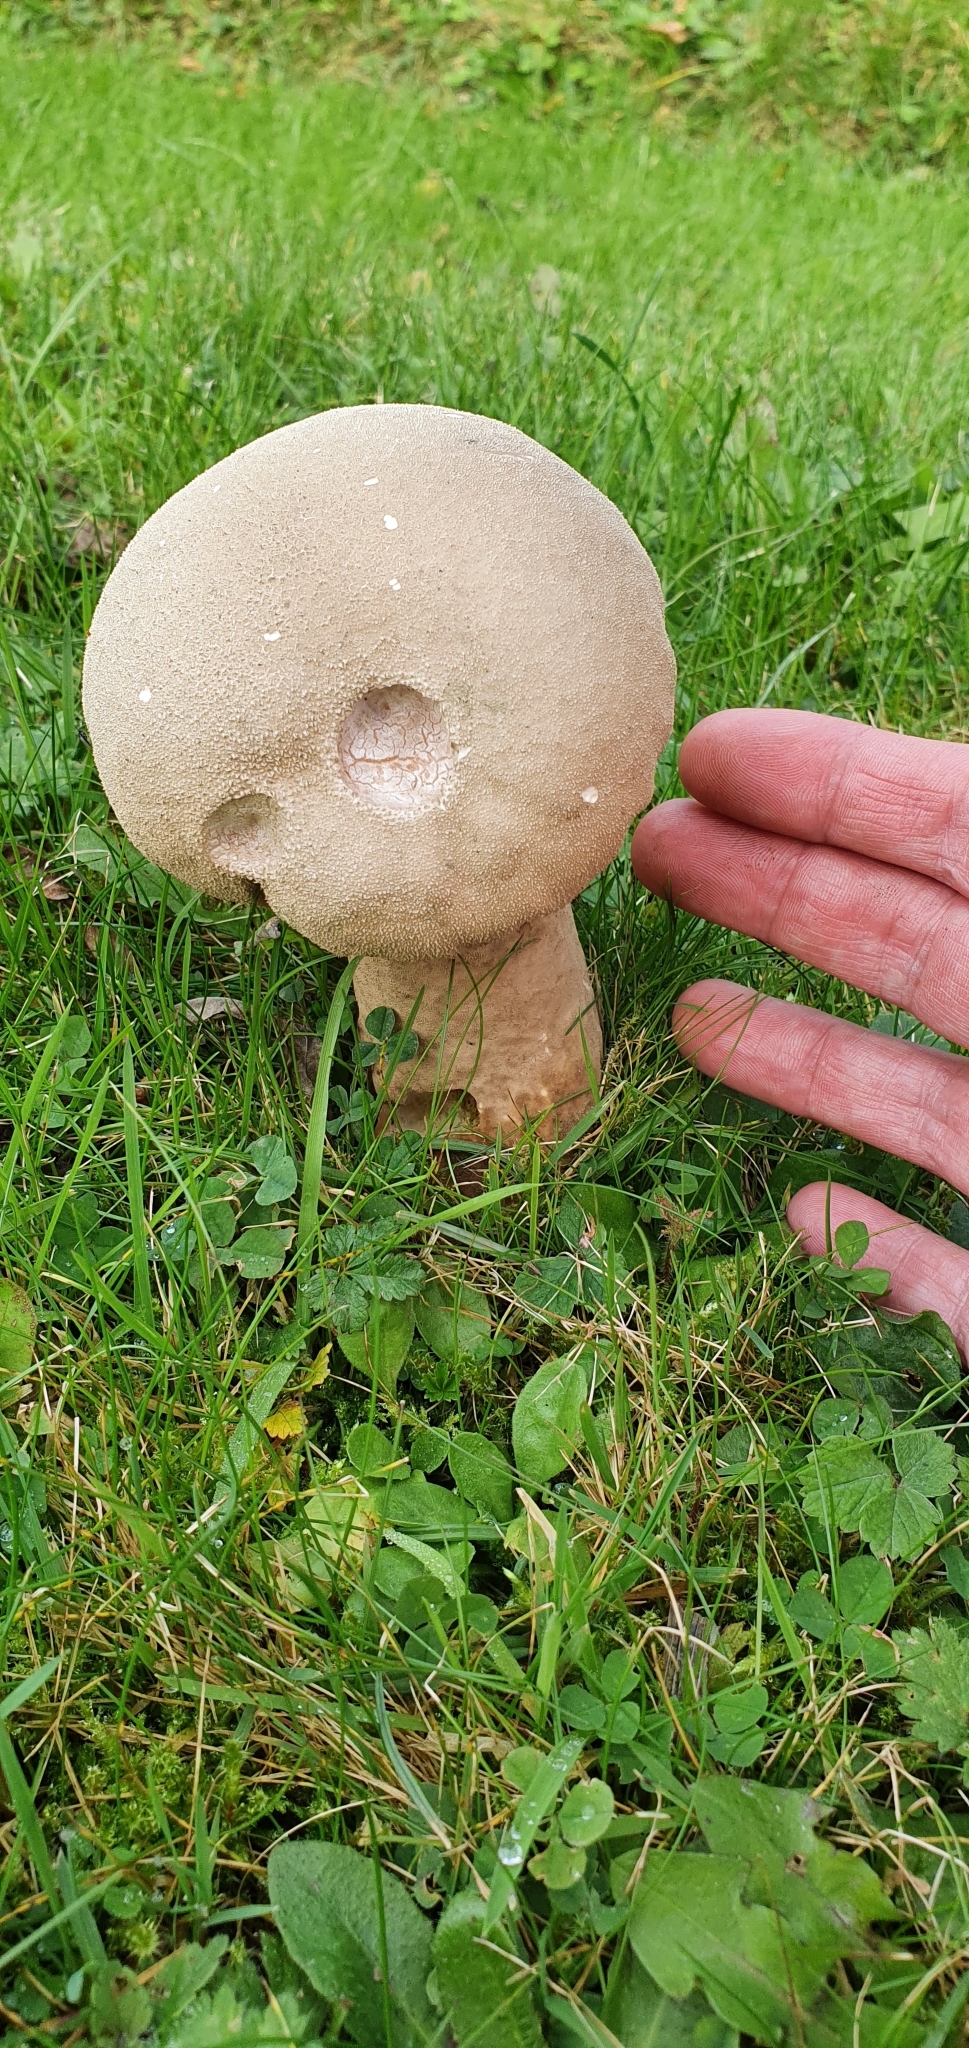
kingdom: Fungi
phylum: Basidiomycota
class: Agaricomycetes
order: Agaricales
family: Lycoperdaceae
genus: Lycoperdon
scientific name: Lycoperdon excipuliforme
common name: Pestle puffball
